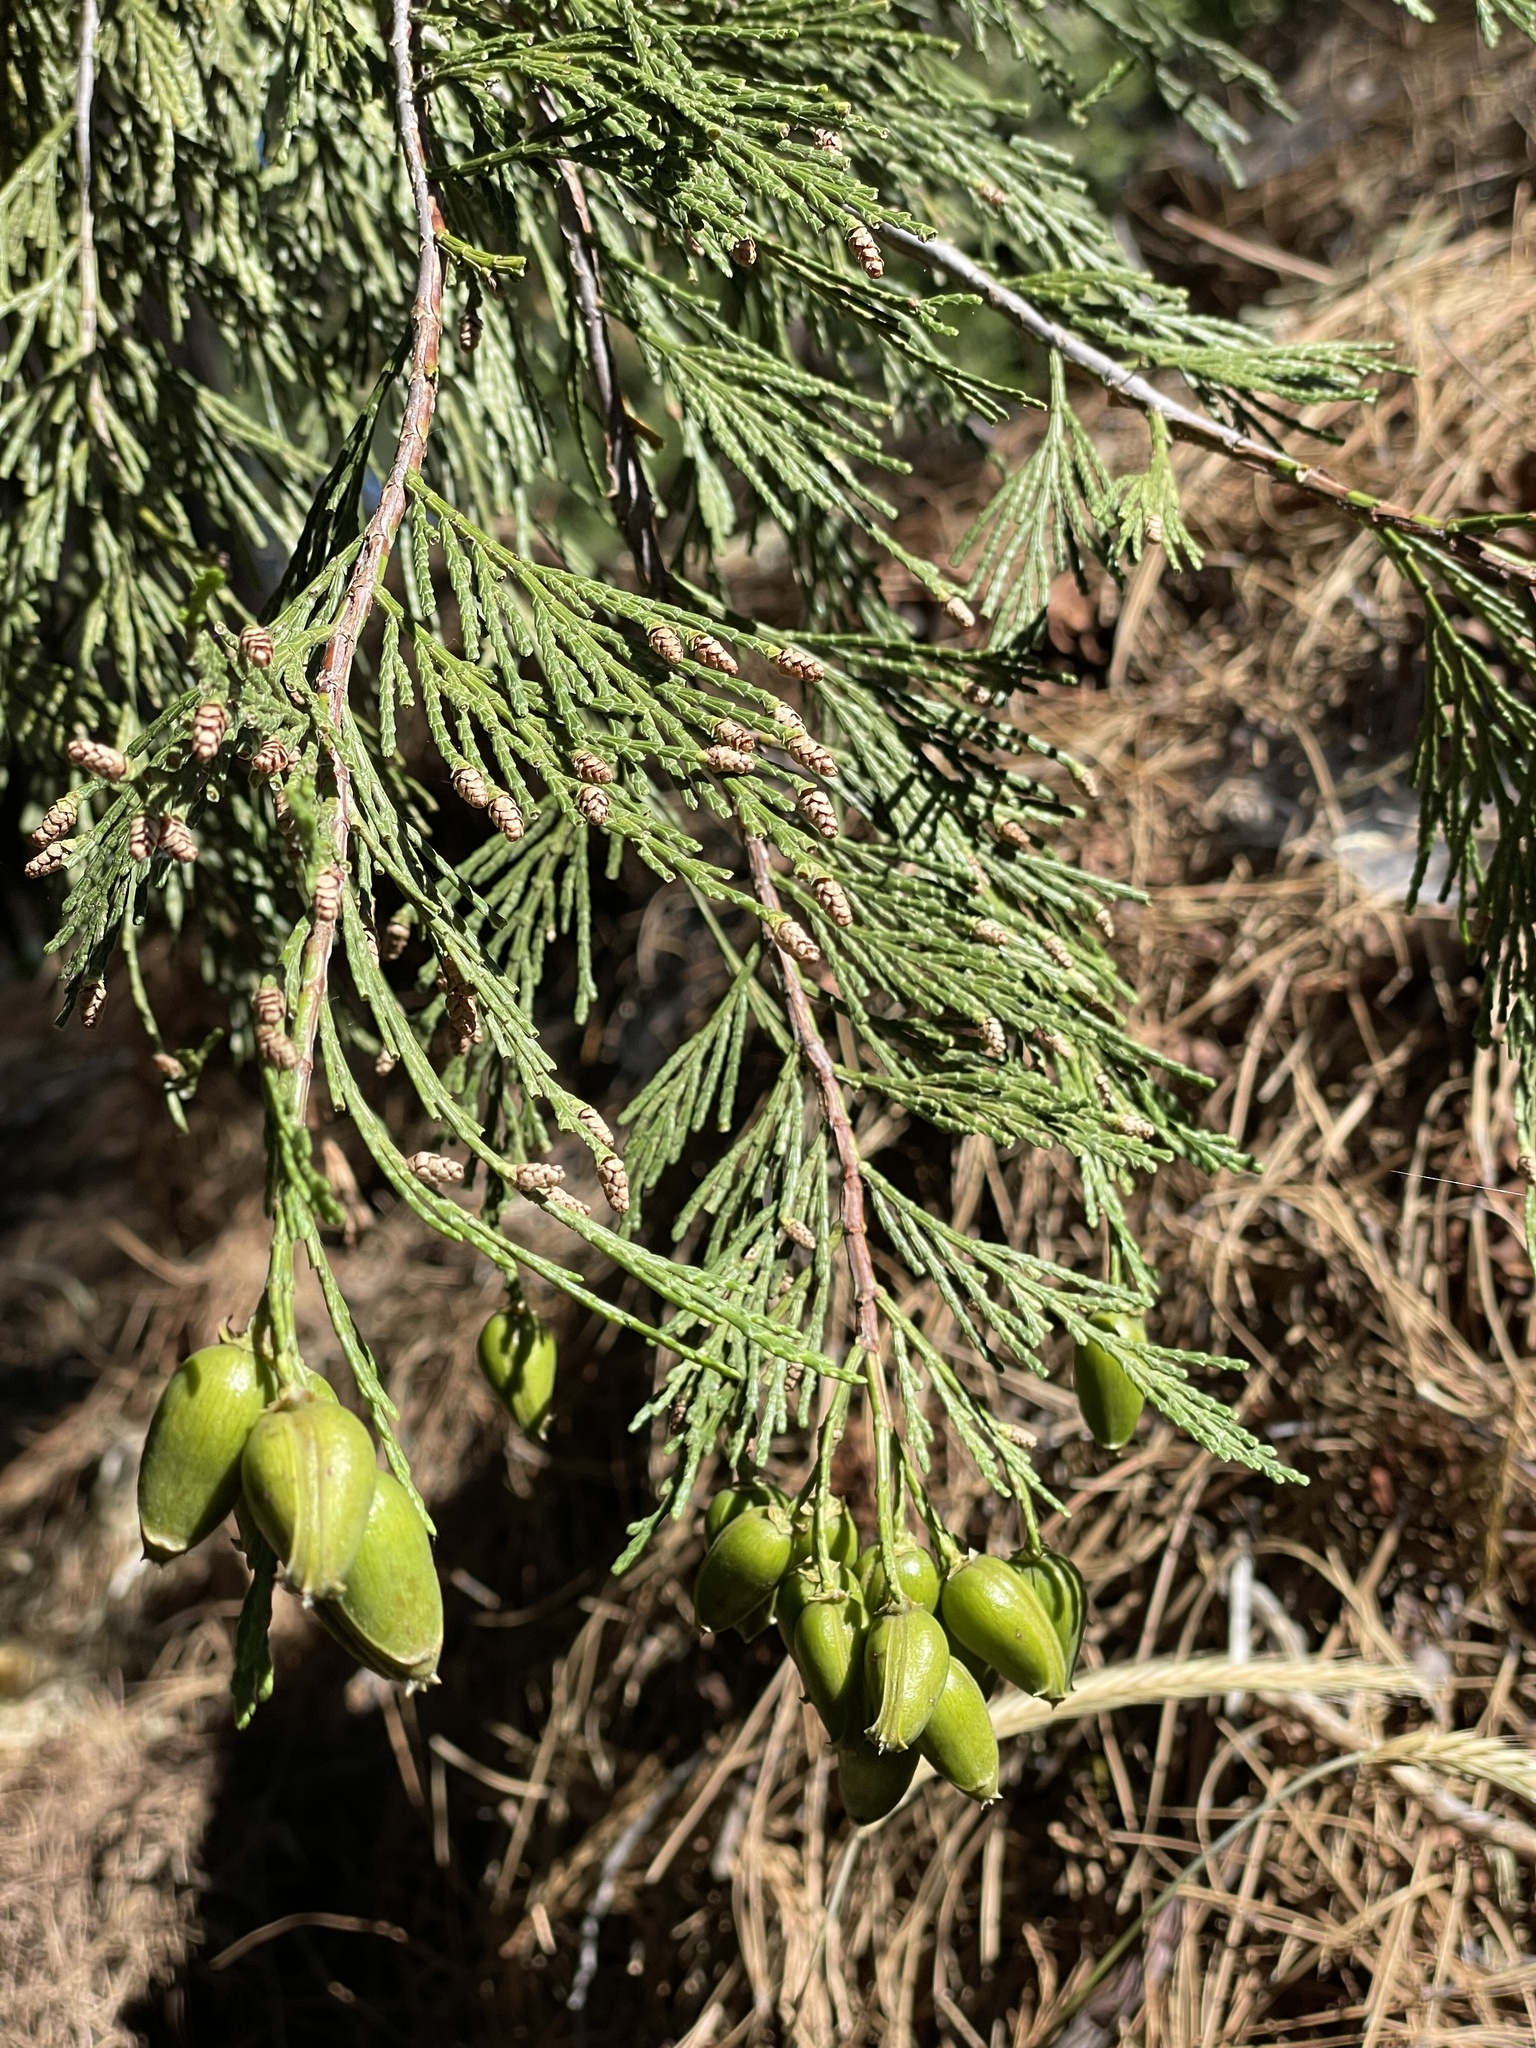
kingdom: Plantae
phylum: Tracheophyta
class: Pinopsida
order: Pinales
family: Cupressaceae
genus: Calocedrus
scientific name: Calocedrus decurrens
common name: Californian incense-cedar
